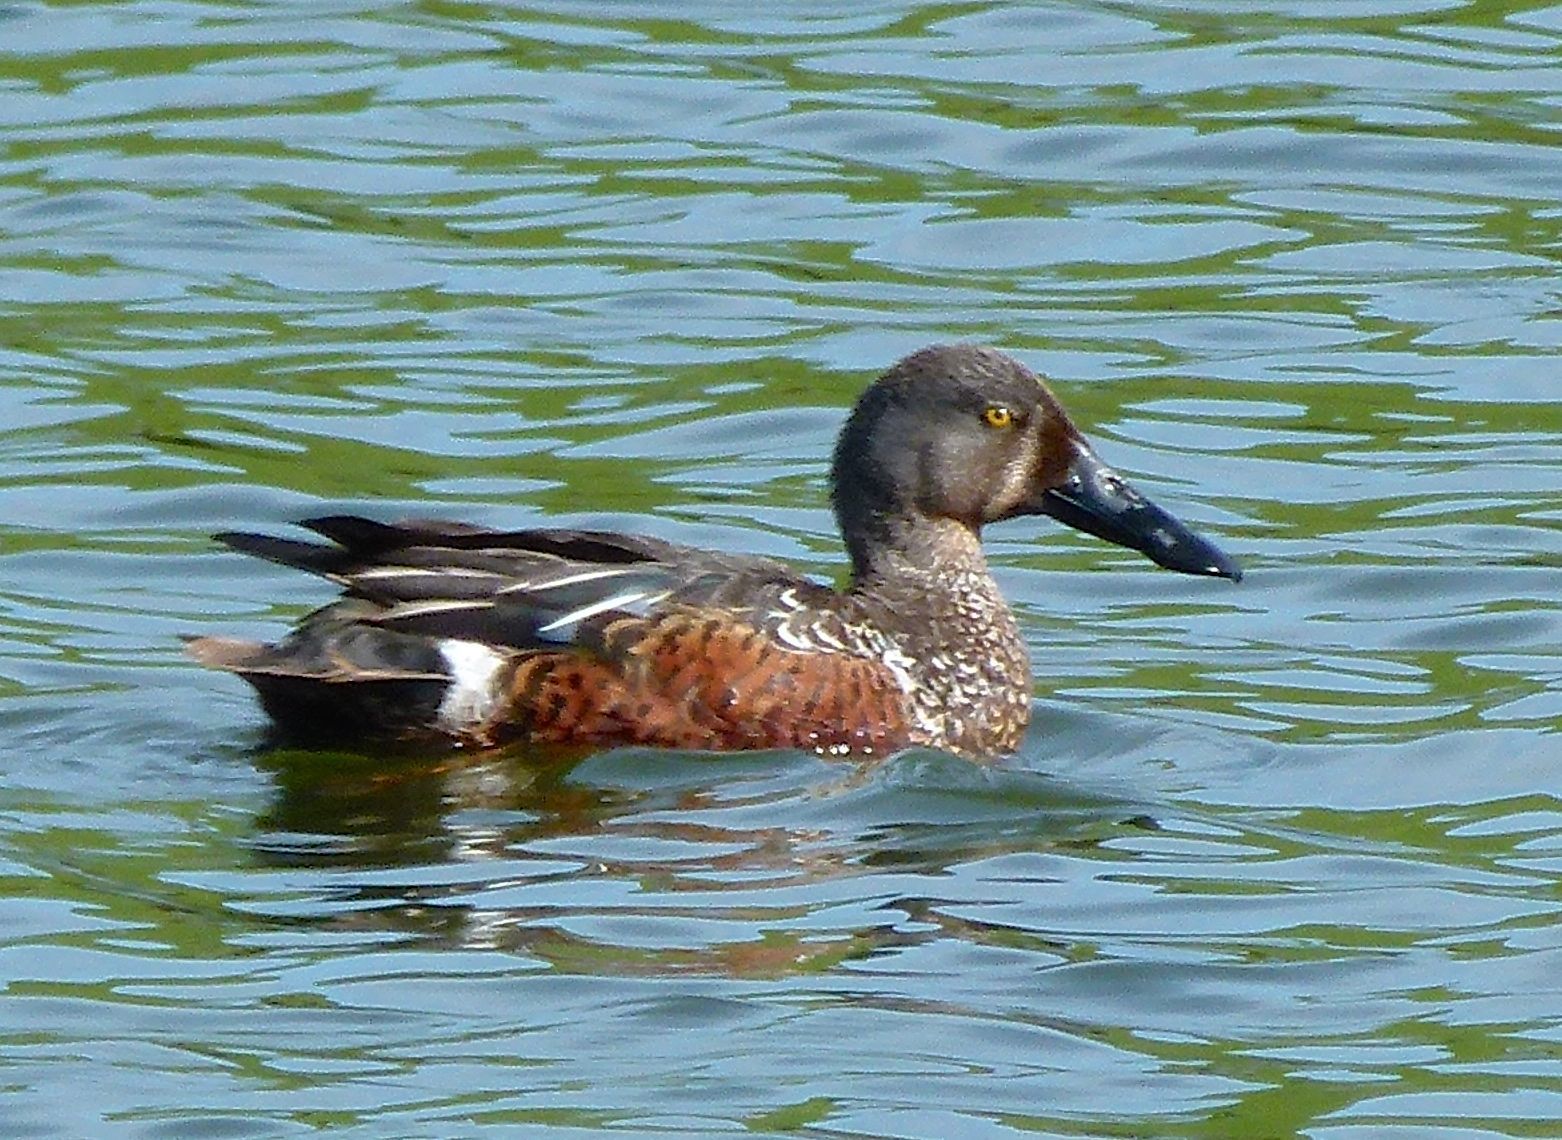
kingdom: Animalia
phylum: Chordata
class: Aves
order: Anseriformes
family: Anatidae
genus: Spatula
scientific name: Spatula rhynchotis
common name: Australian shoveler
